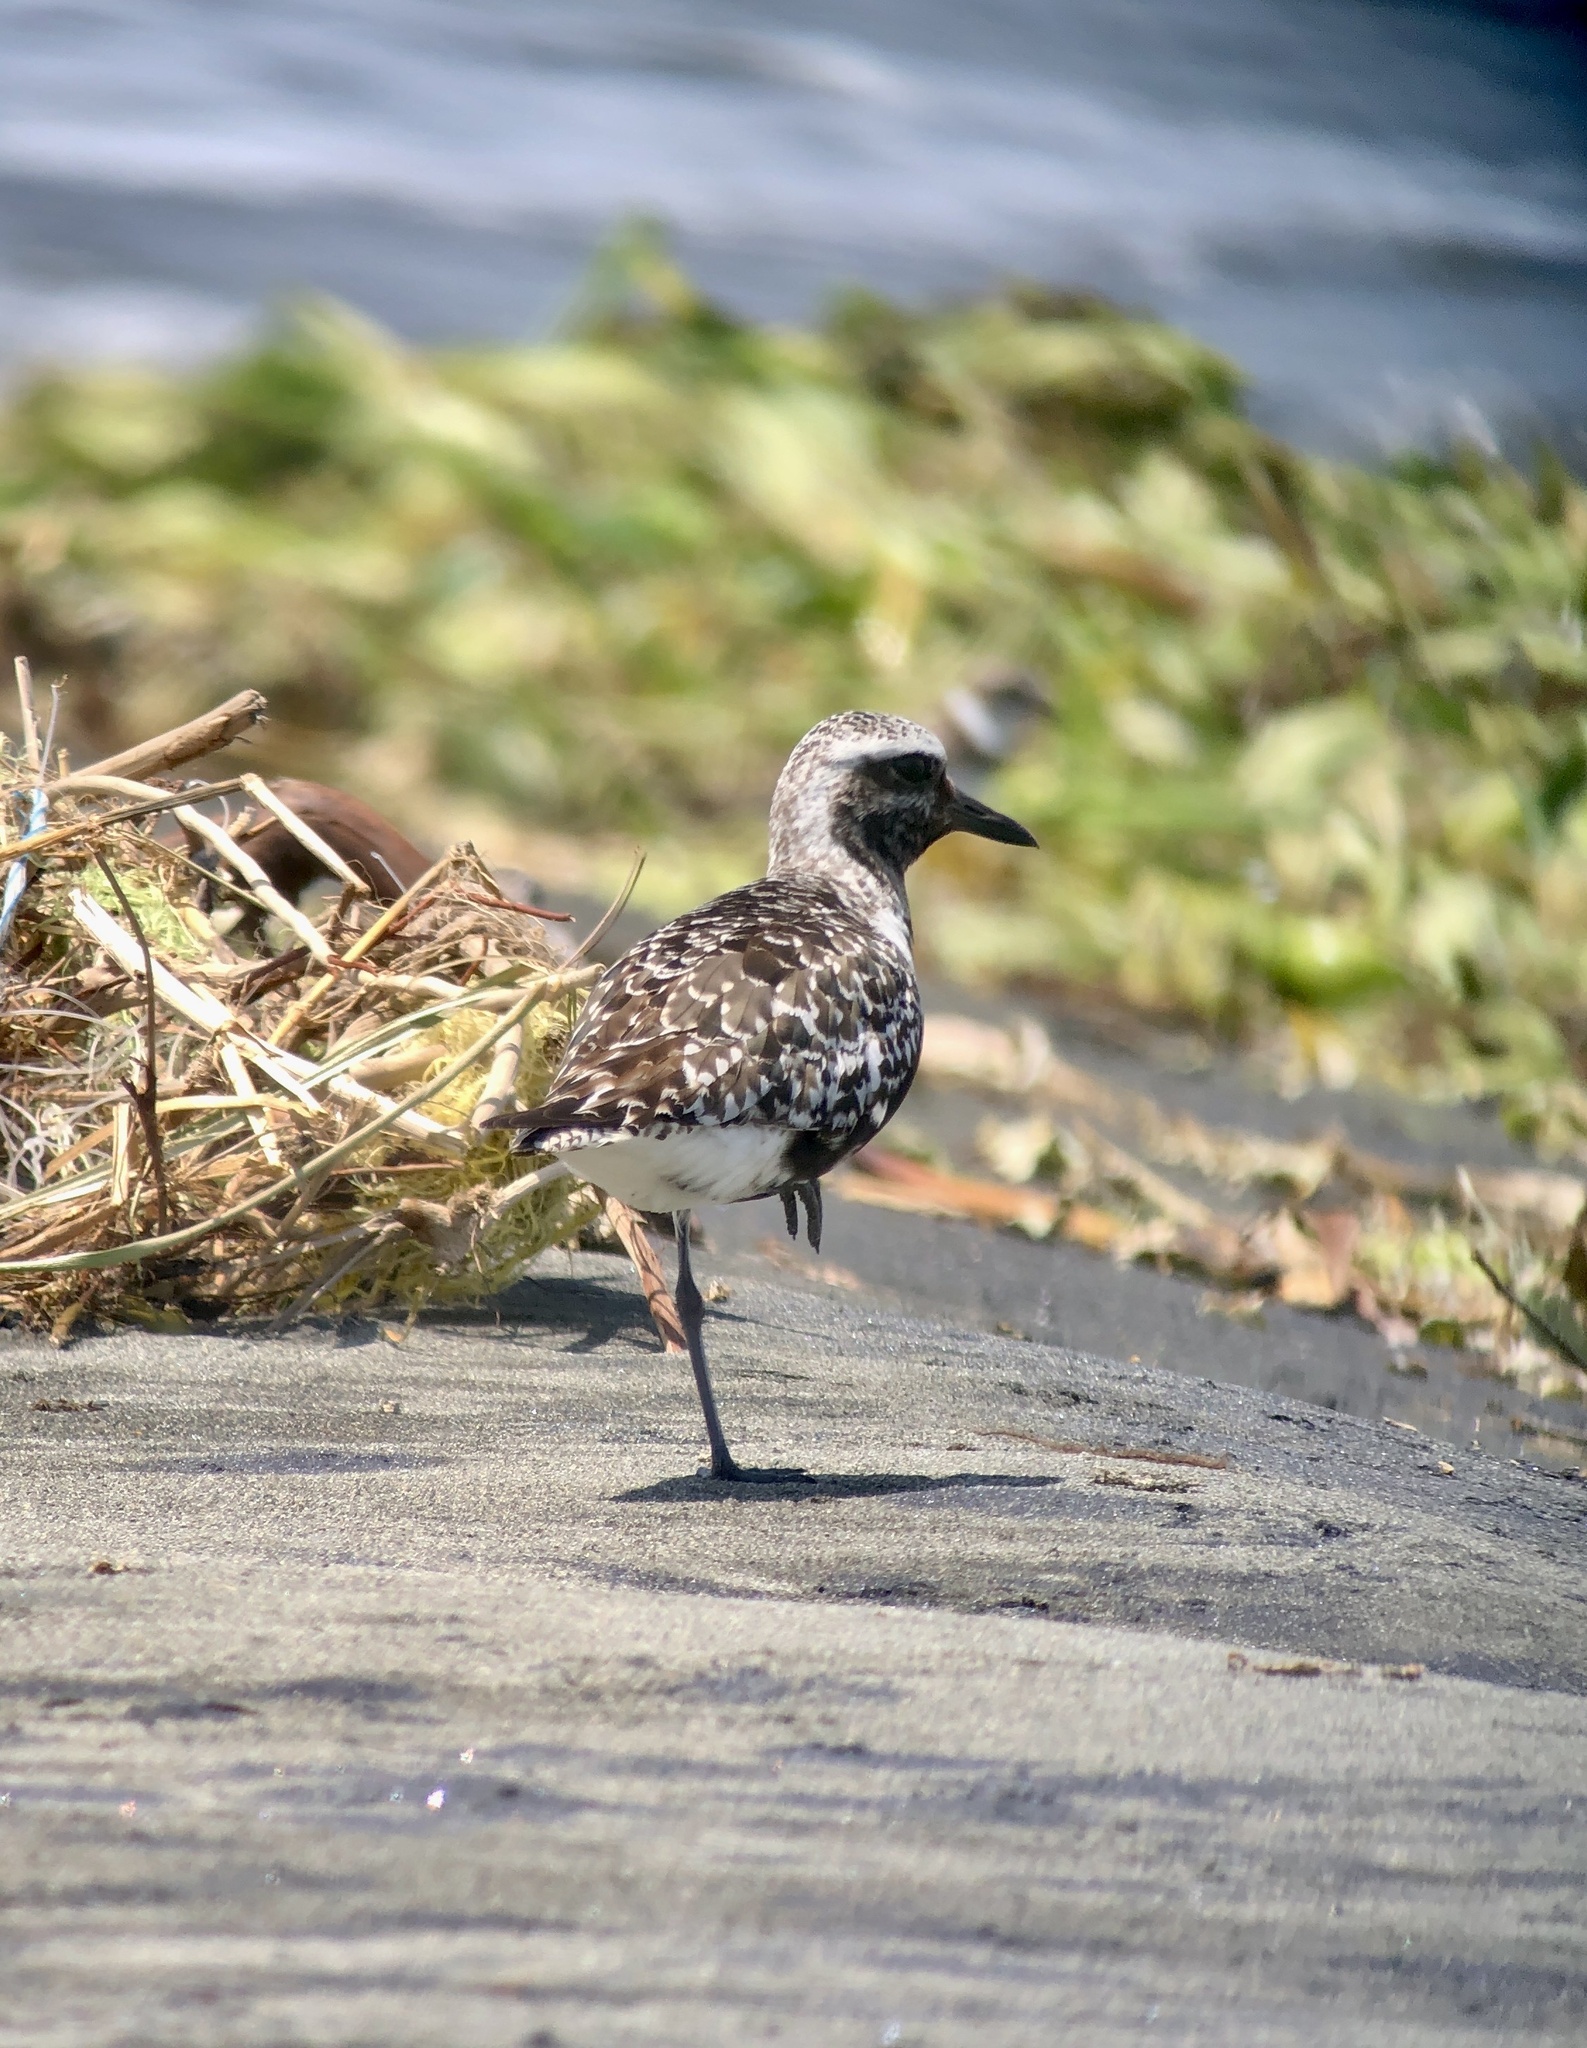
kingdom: Animalia
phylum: Chordata
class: Aves
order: Charadriiformes
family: Charadriidae
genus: Pluvialis
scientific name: Pluvialis squatarola
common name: Grey plover
